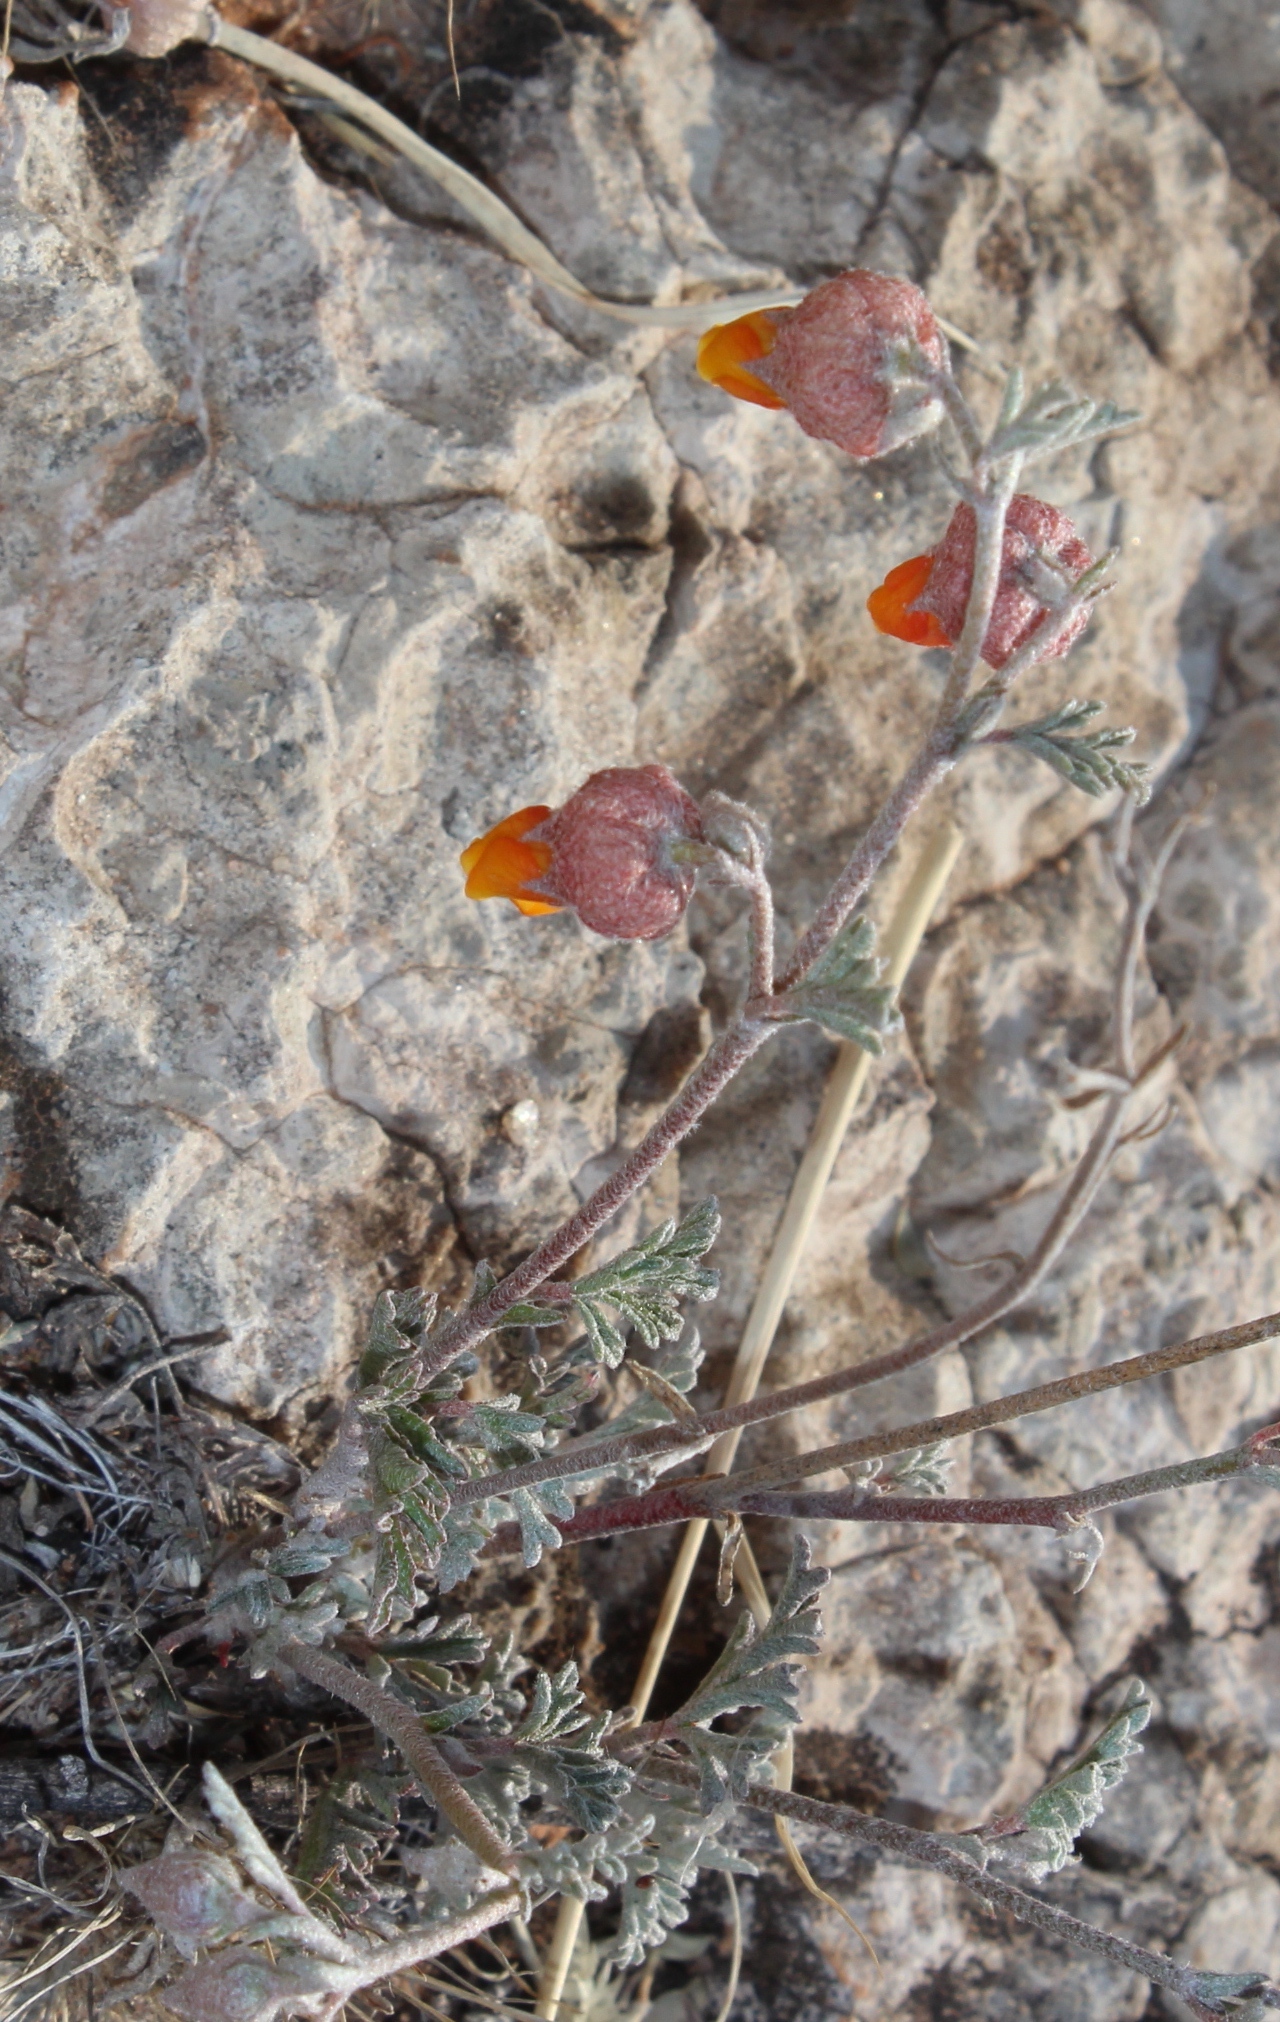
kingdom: Plantae
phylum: Tracheophyta
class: Magnoliopsida
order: Malvales
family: Malvaceae
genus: Hermannia
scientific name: Hermannia abrotanoides
